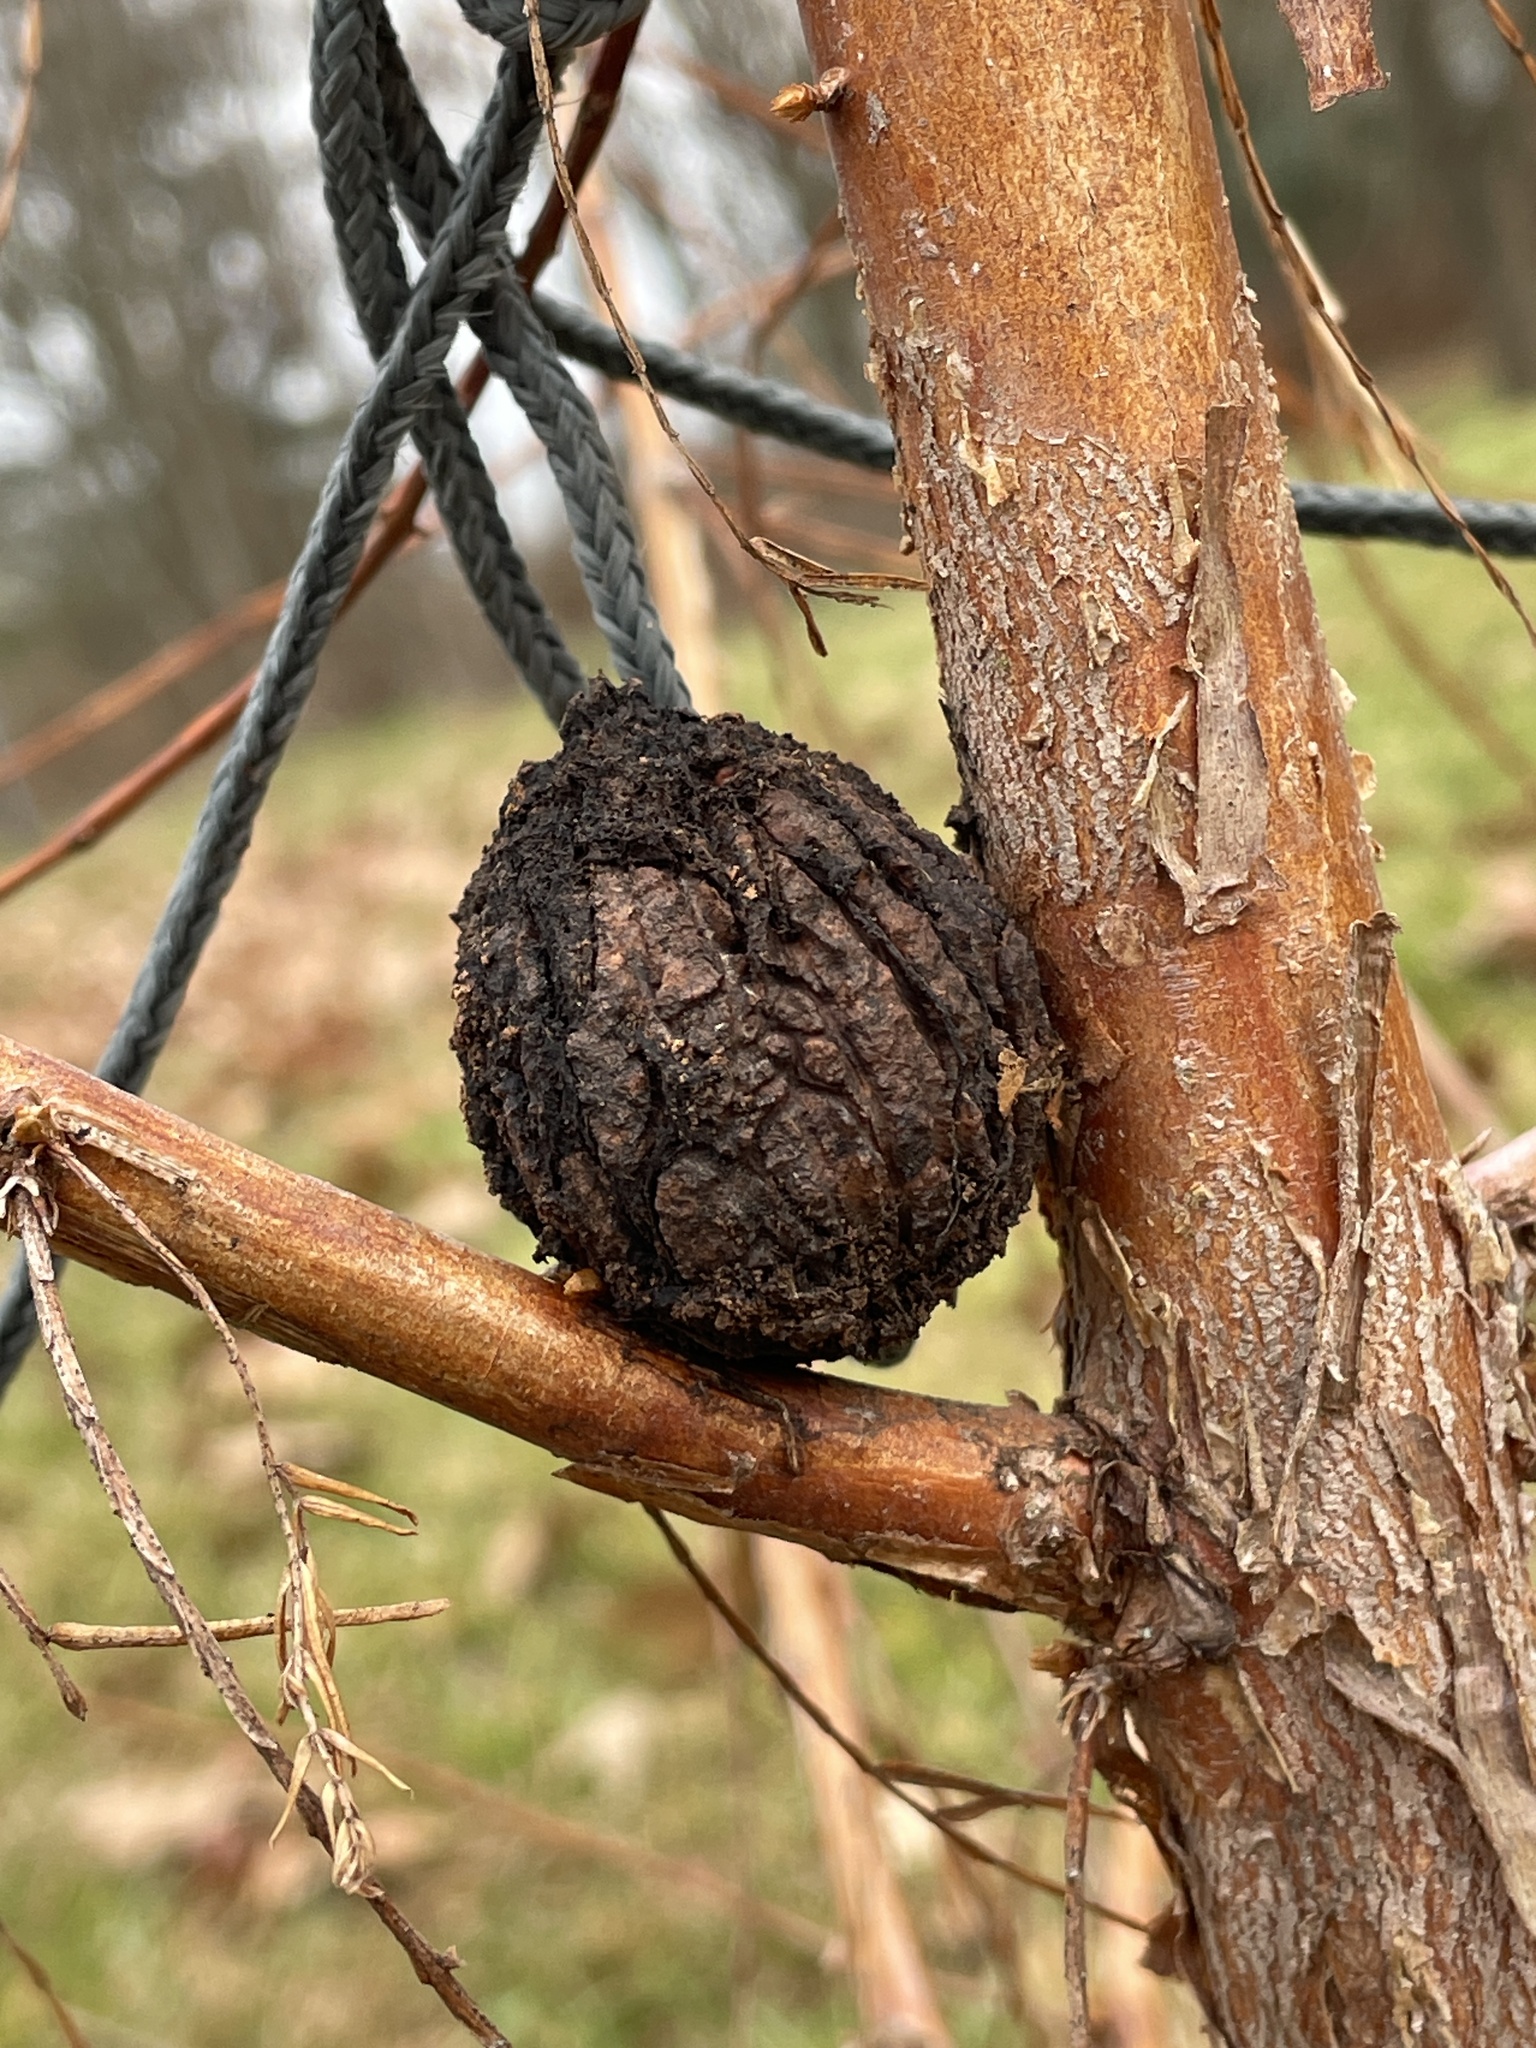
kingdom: Plantae
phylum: Tracheophyta
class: Magnoliopsida
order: Fagales
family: Juglandaceae
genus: Juglans
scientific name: Juglans nigra
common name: Black walnut
